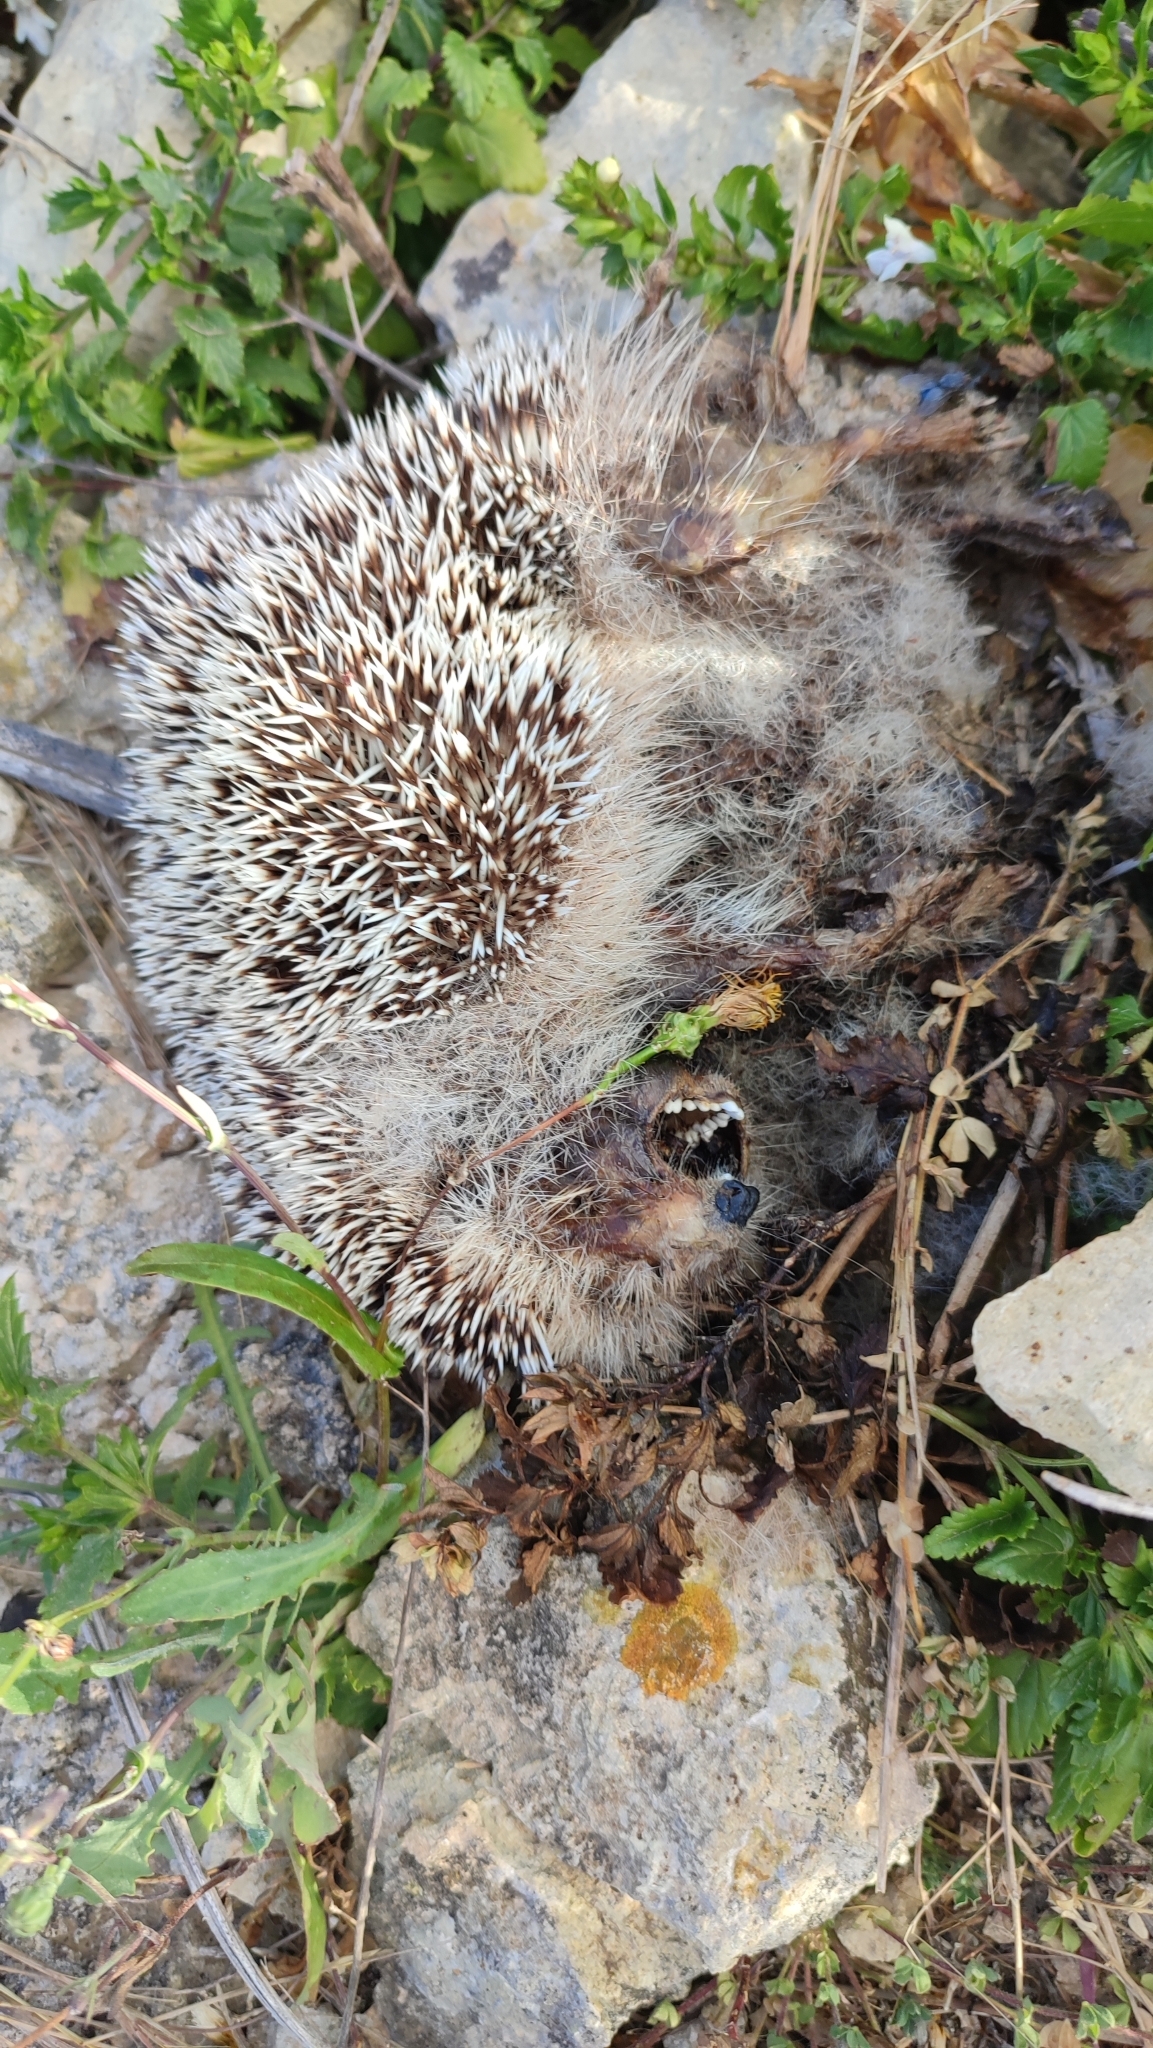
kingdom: Animalia
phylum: Chordata
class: Mammalia
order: Erinaceomorpha
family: Erinaceidae
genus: Atelerix
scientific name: Atelerix algirus
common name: North african hedgehog
